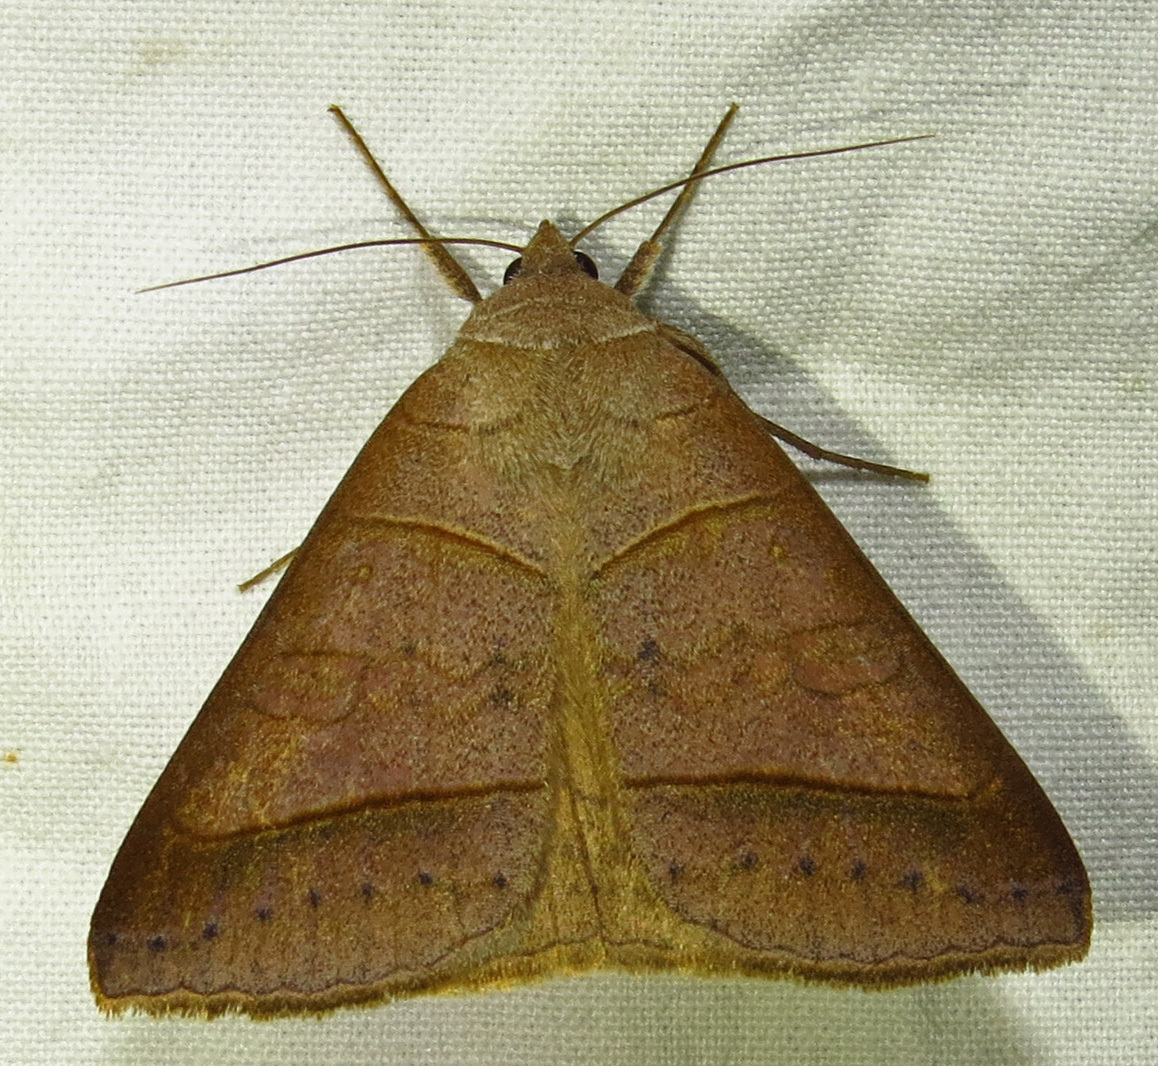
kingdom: Animalia
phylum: Arthropoda
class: Insecta
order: Lepidoptera
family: Erebidae
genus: Mocis
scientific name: Mocis texana
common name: Texas mocis moth
